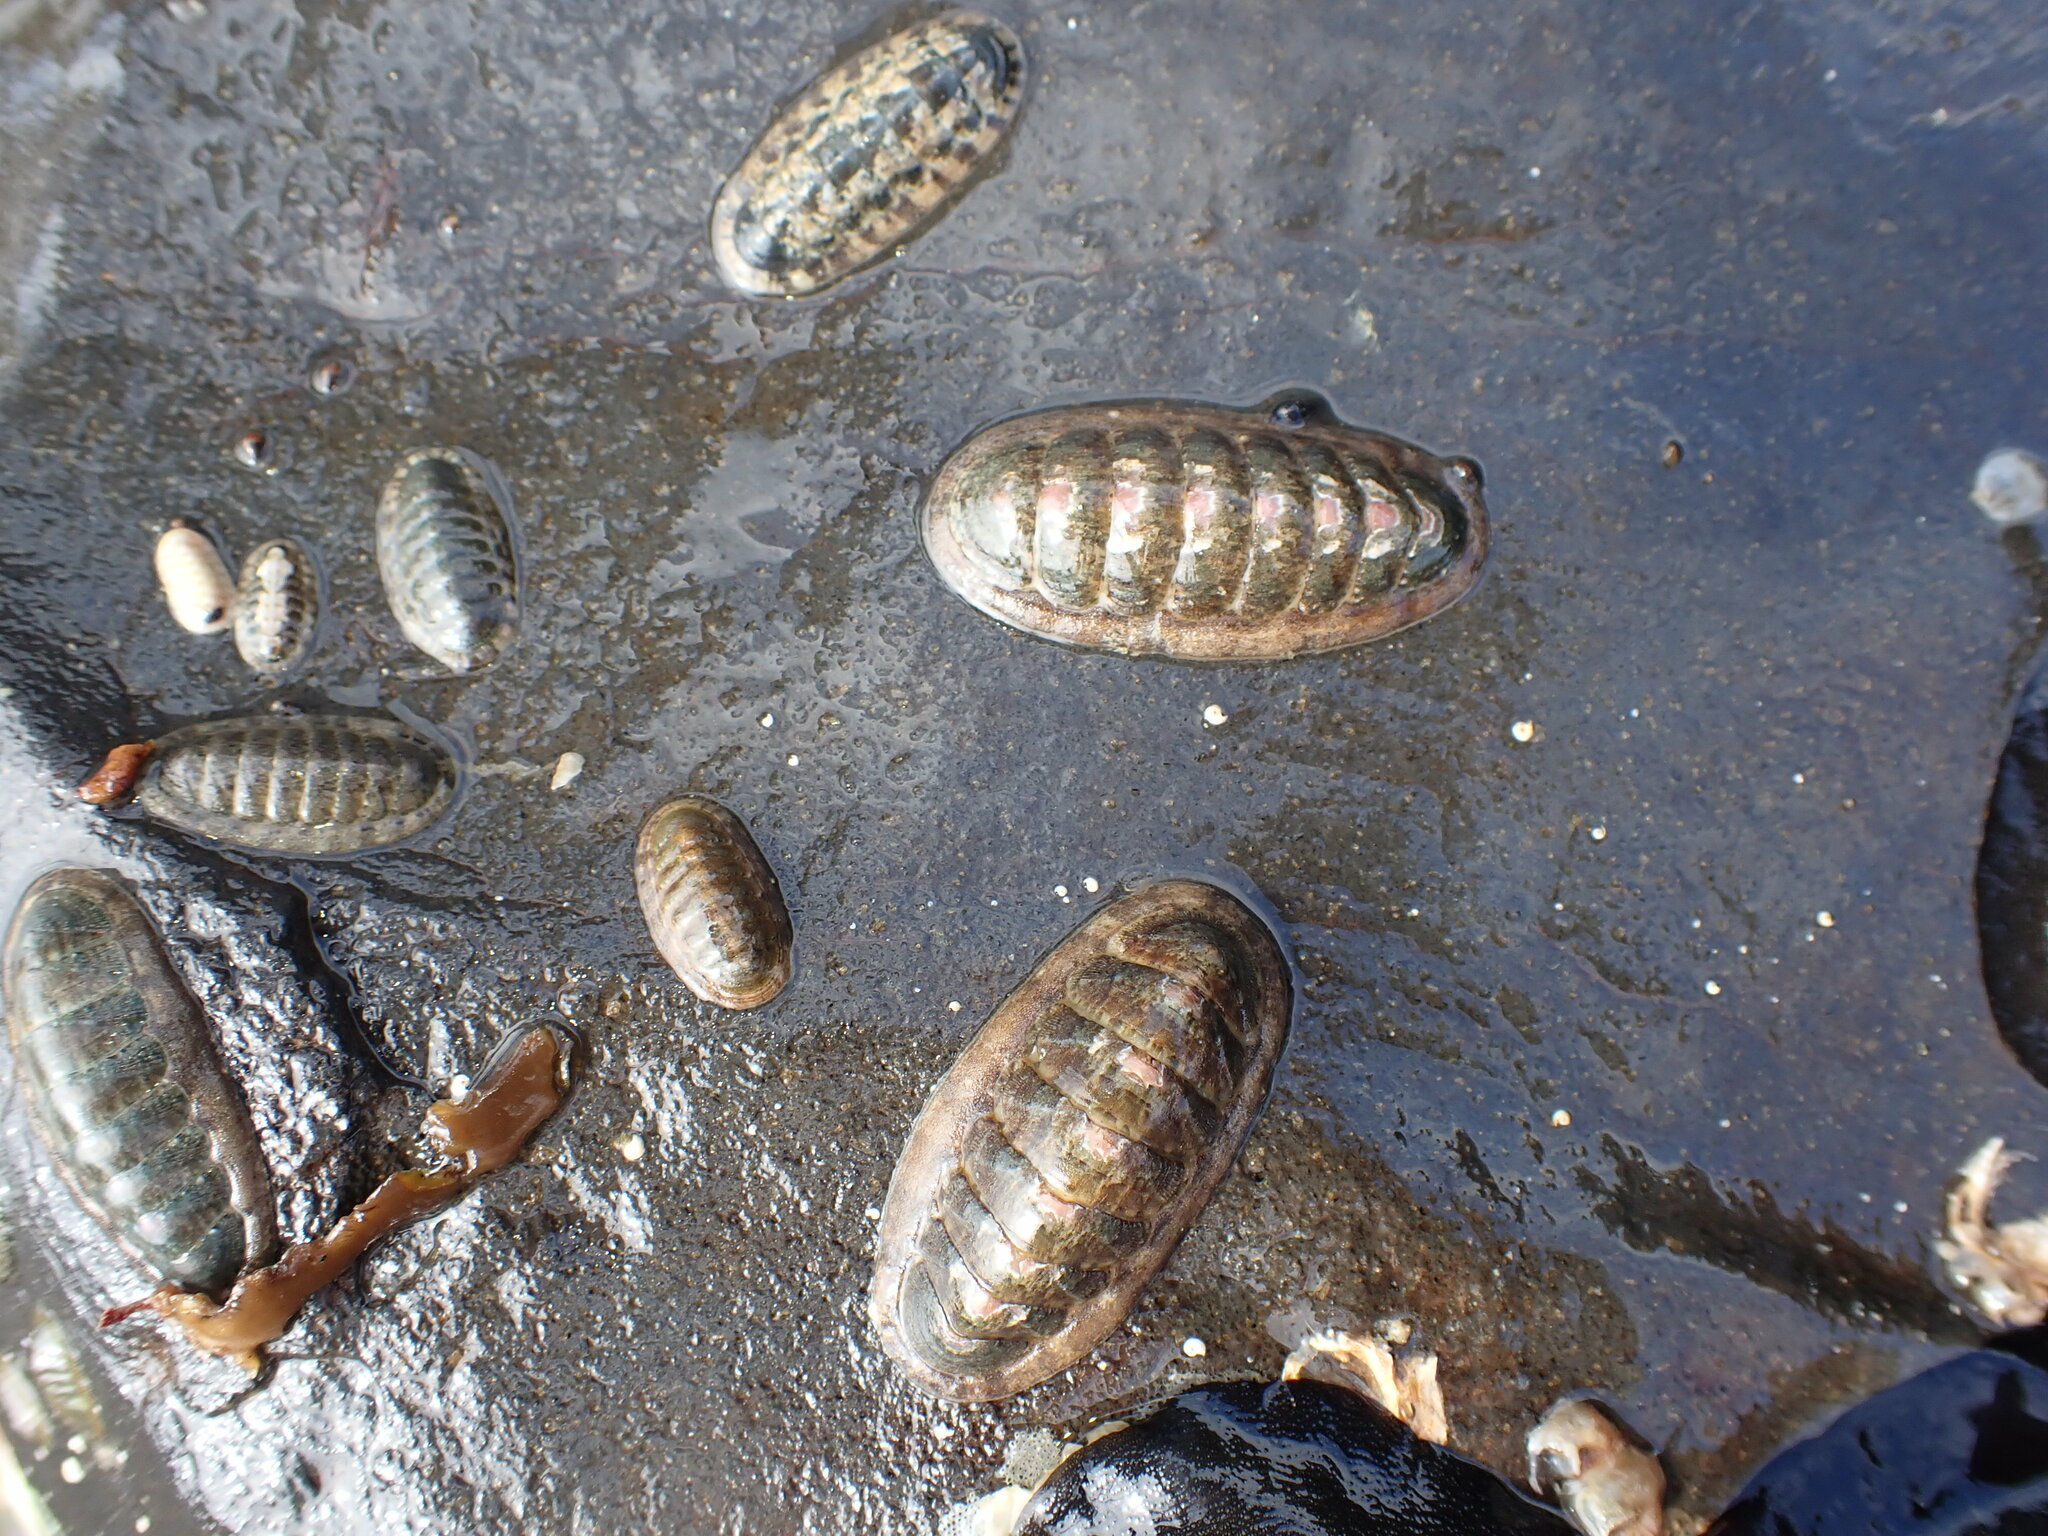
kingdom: Animalia
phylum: Mollusca
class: Polyplacophora
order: Chitonida
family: Ischnochitonidae
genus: Ischnochiton
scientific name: Ischnochiton maorianus
